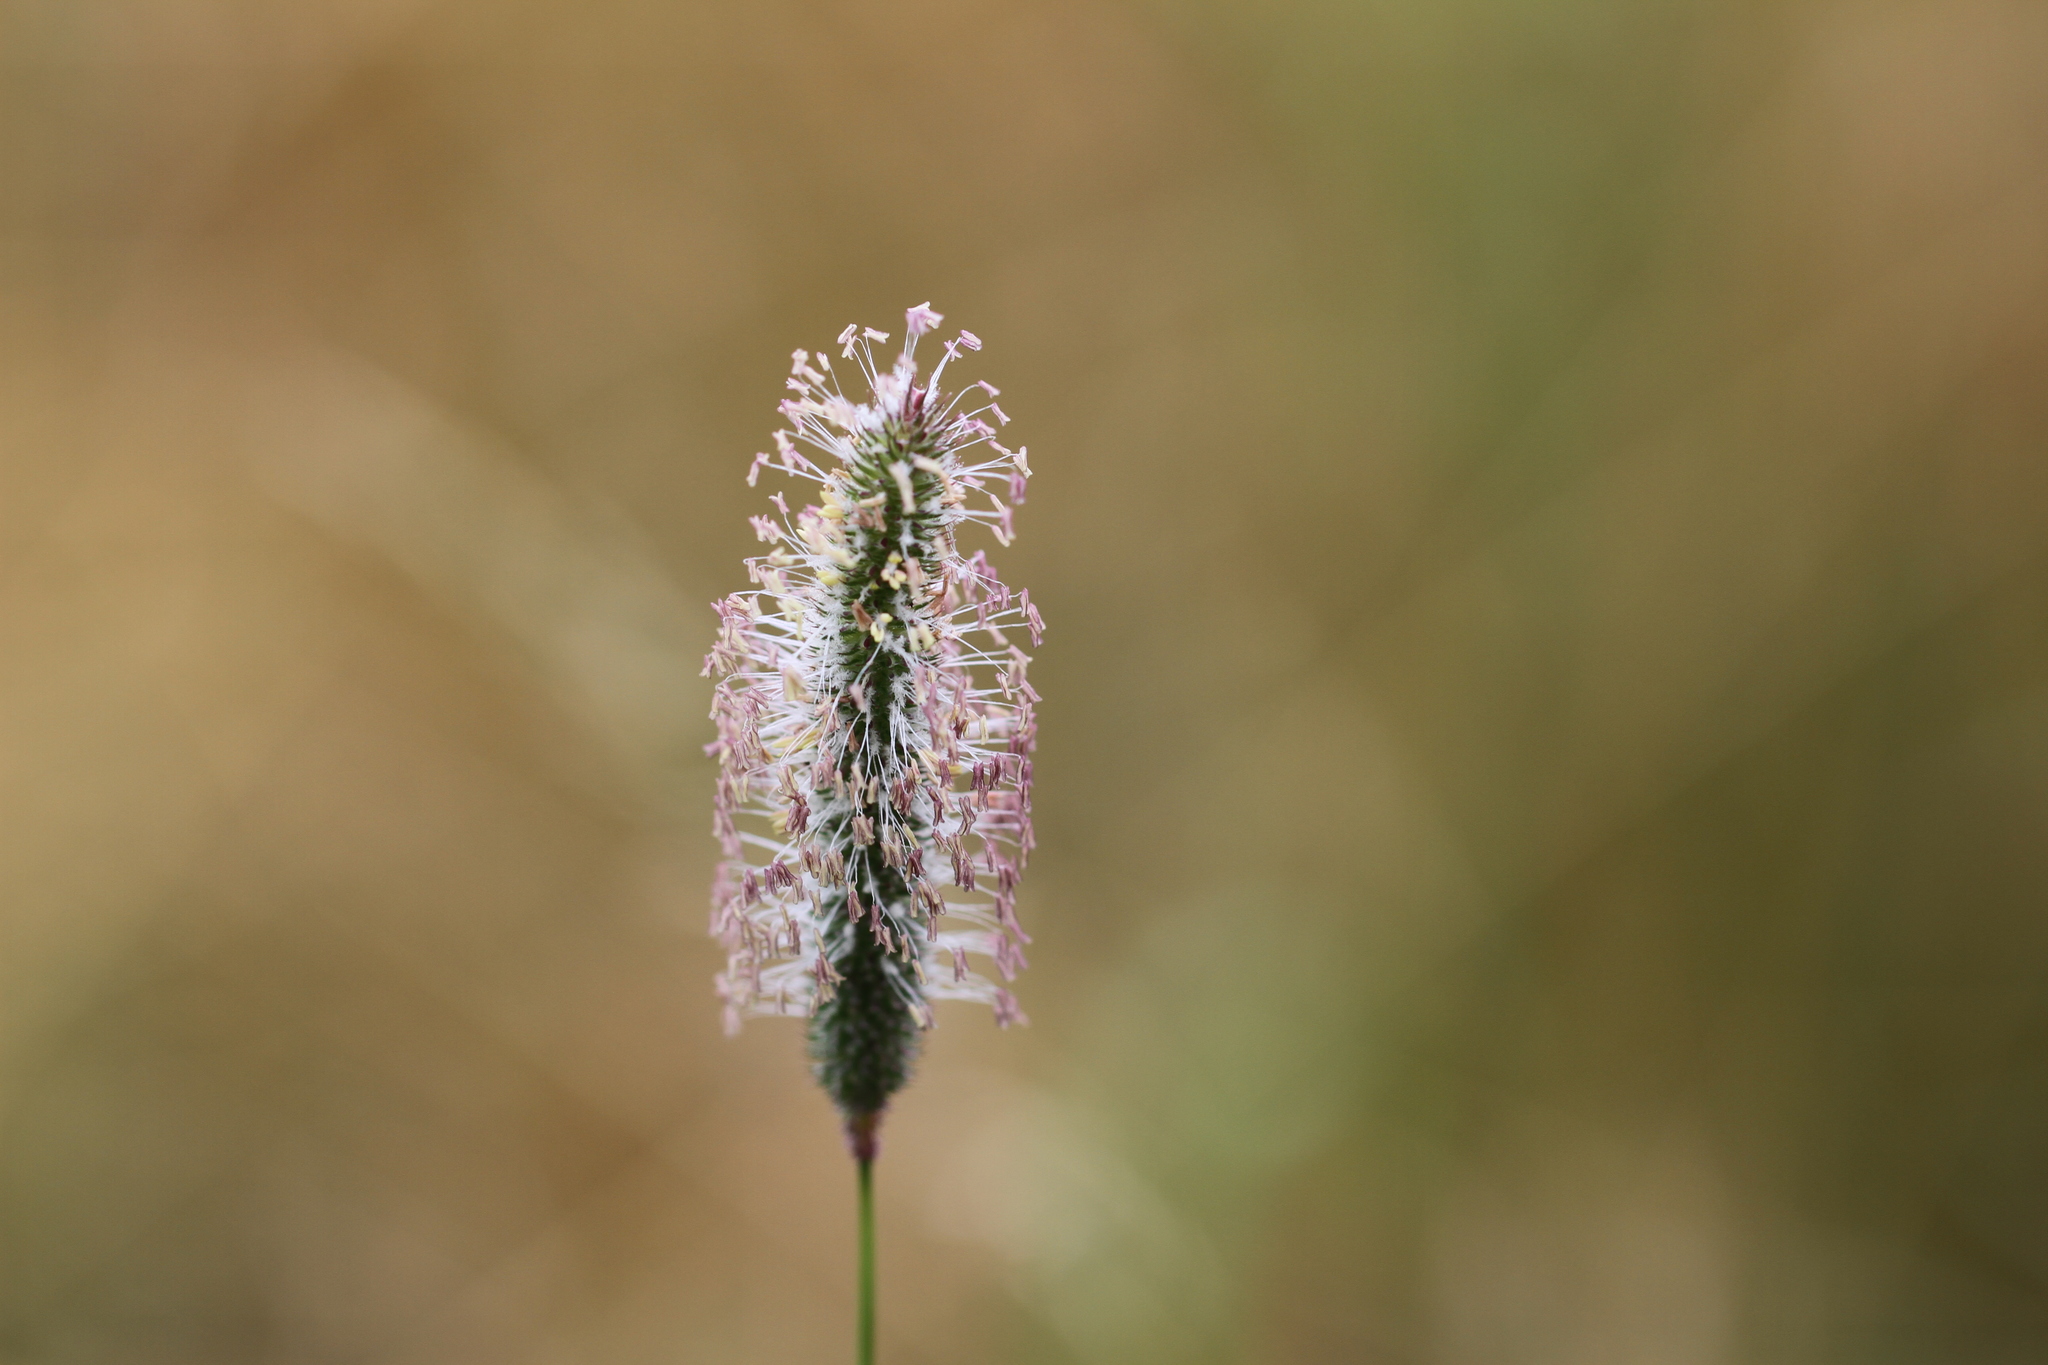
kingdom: Plantae
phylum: Tracheophyta
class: Magnoliopsida
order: Lamiales
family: Plantaginaceae
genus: Plantago
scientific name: Plantago media
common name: Hoary plantain
